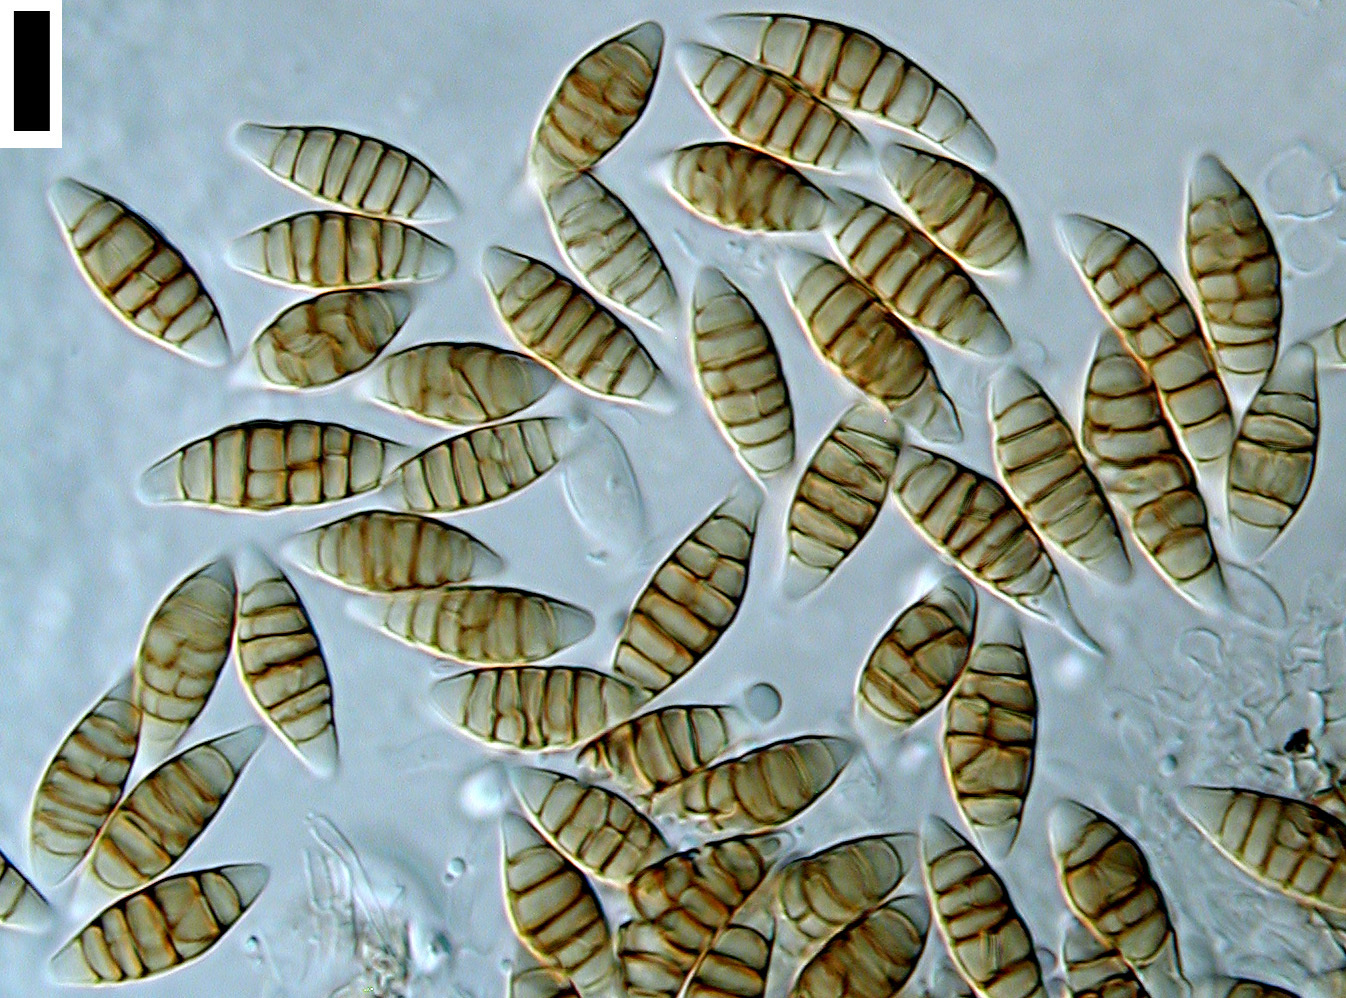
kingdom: Fungi
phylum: Ascomycota
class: Dothideomycetes
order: Pleosporales
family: Phaeosphaeriaceae
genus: Amarenographium
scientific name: Amarenographium metableticum
